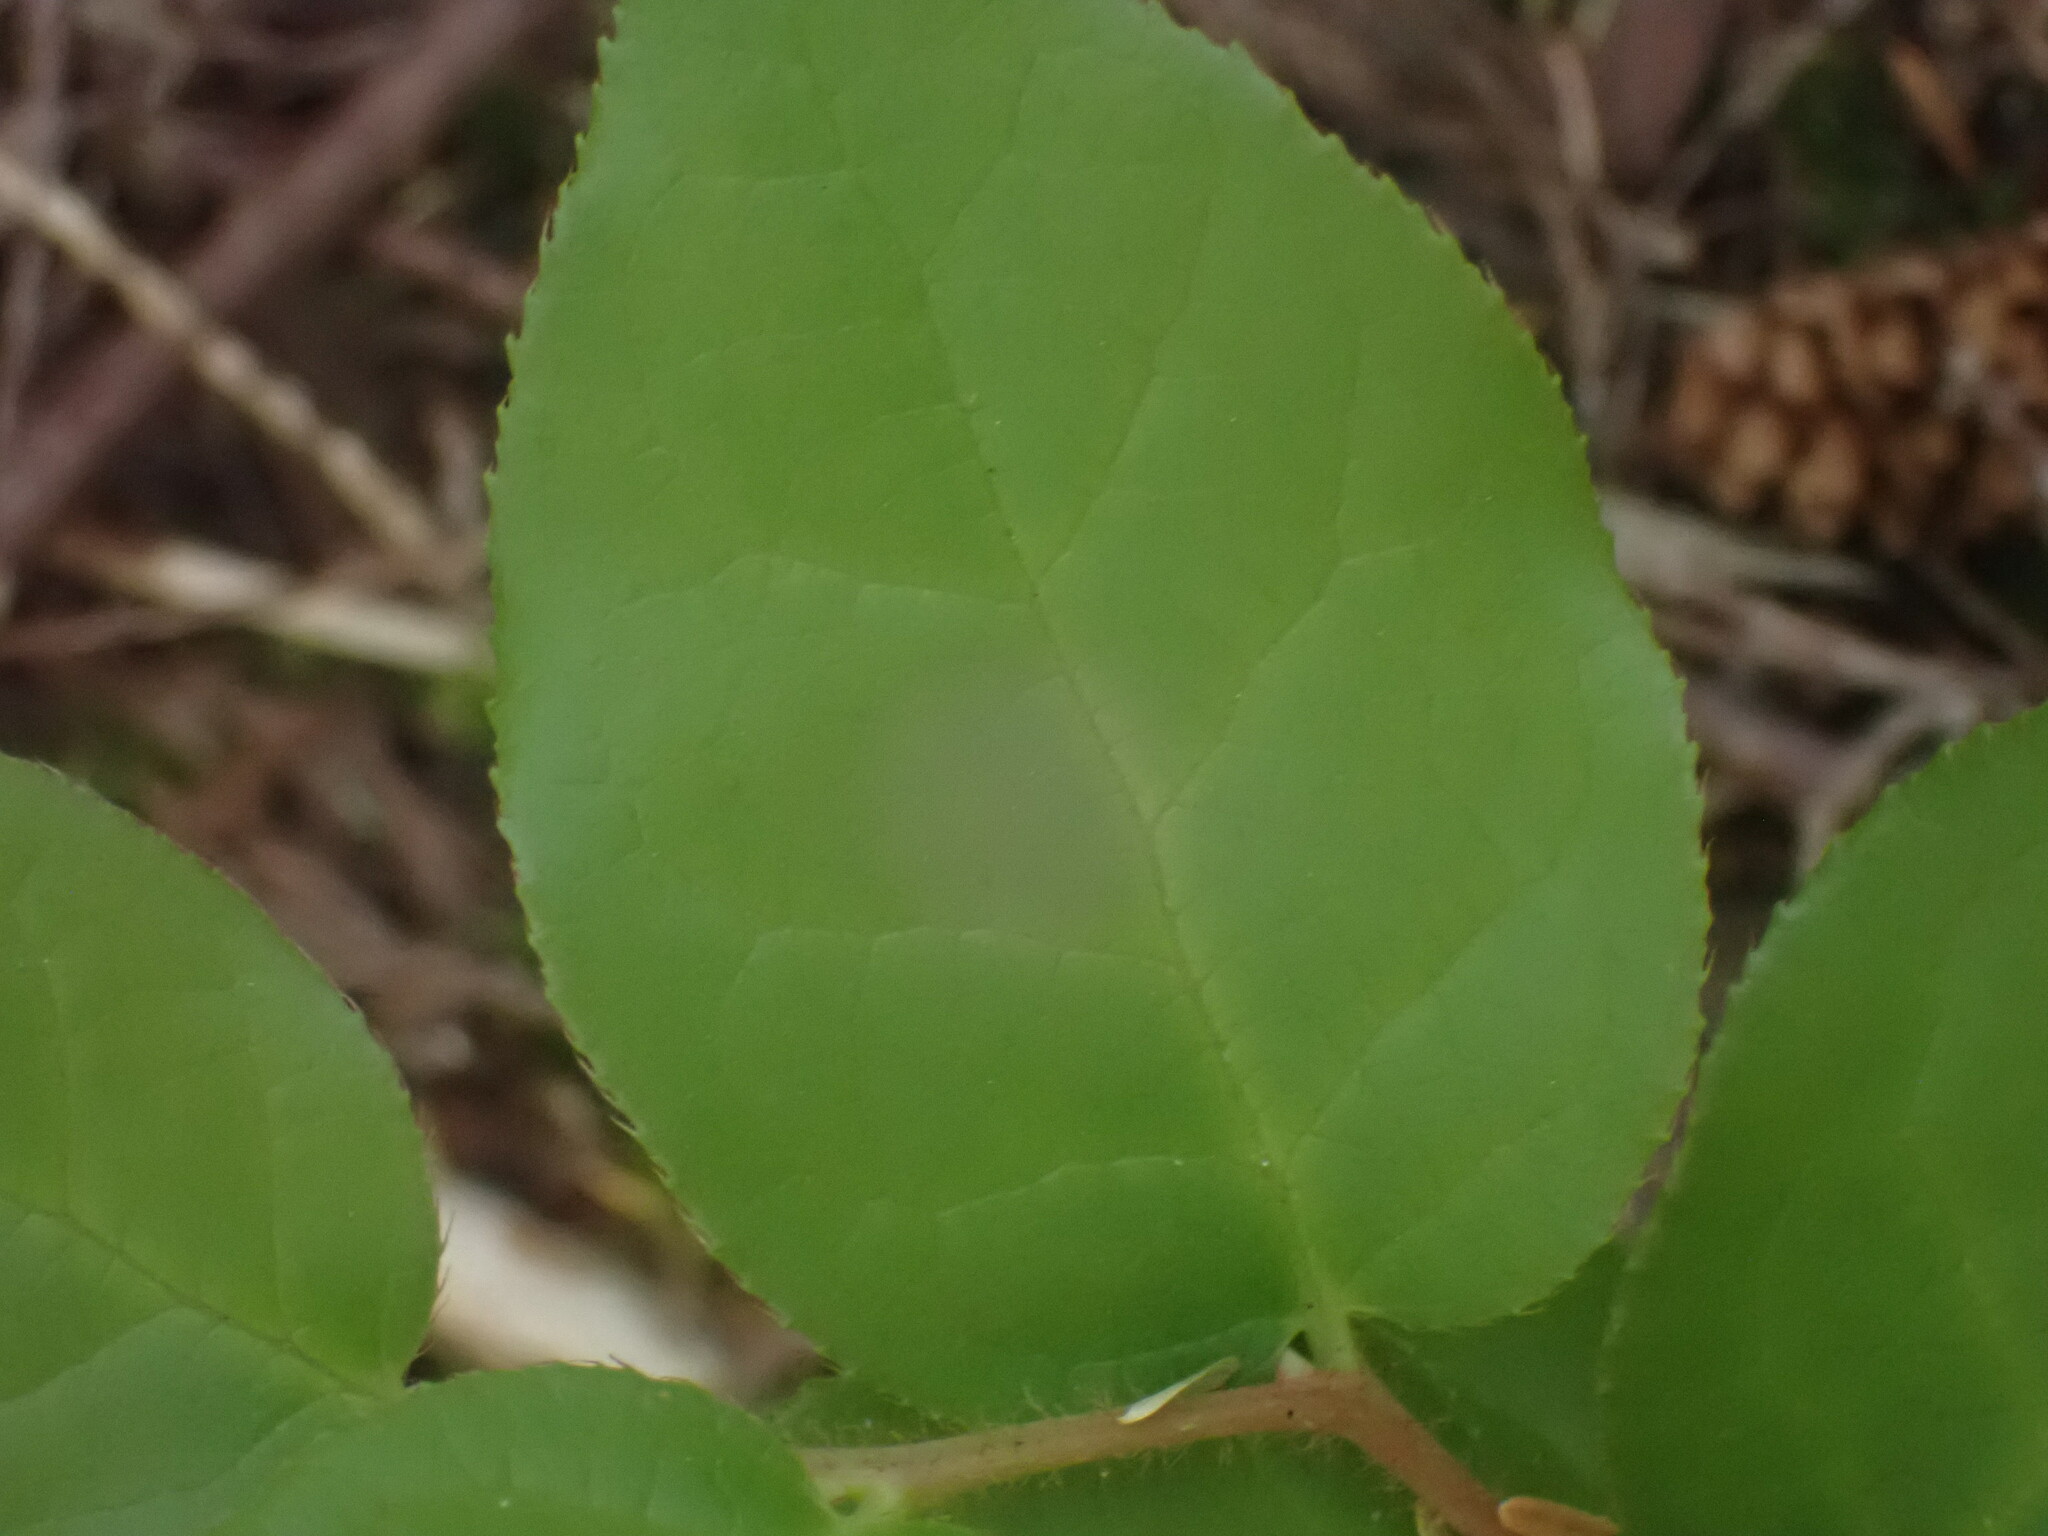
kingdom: Plantae
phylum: Tracheophyta
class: Magnoliopsida
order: Ericales
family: Ericaceae
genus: Gaultheria
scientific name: Gaultheria shallon
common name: Shallon
